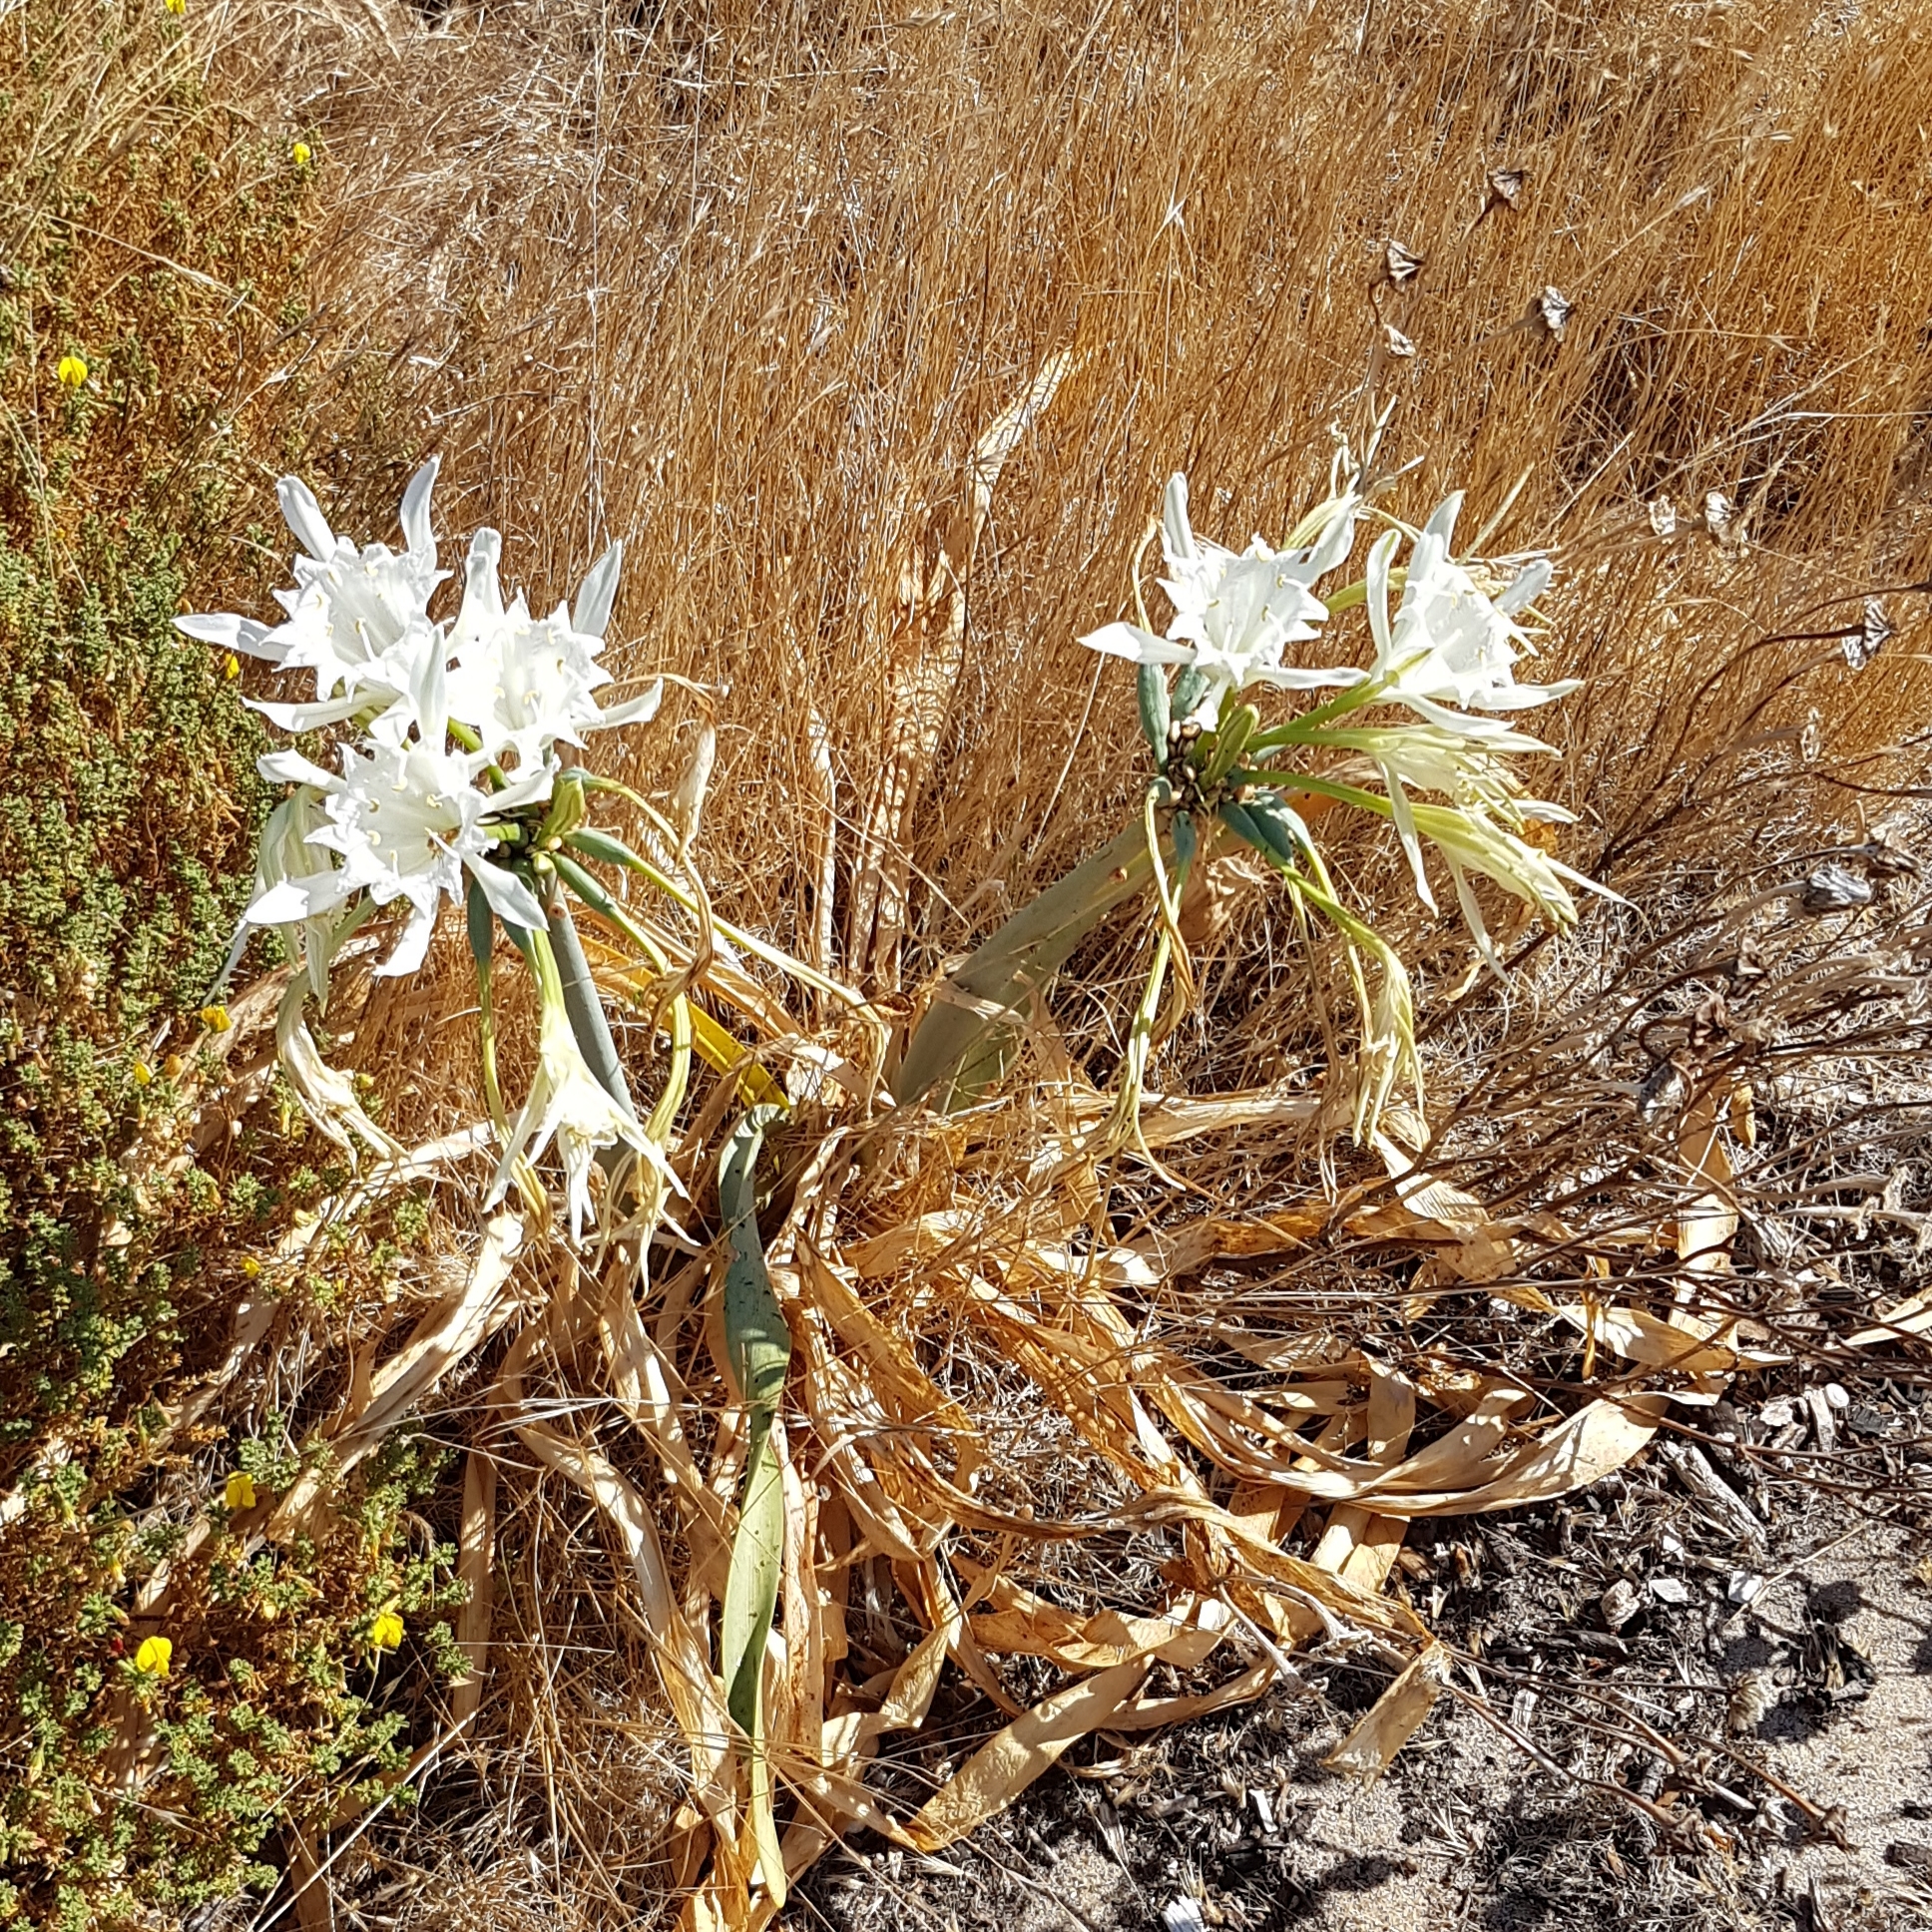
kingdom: Plantae
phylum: Tracheophyta
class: Liliopsida
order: Asparagales
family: Amaryllidaceae
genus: Pancratium
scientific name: Pancratium maritimum
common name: Sea-daffodil
